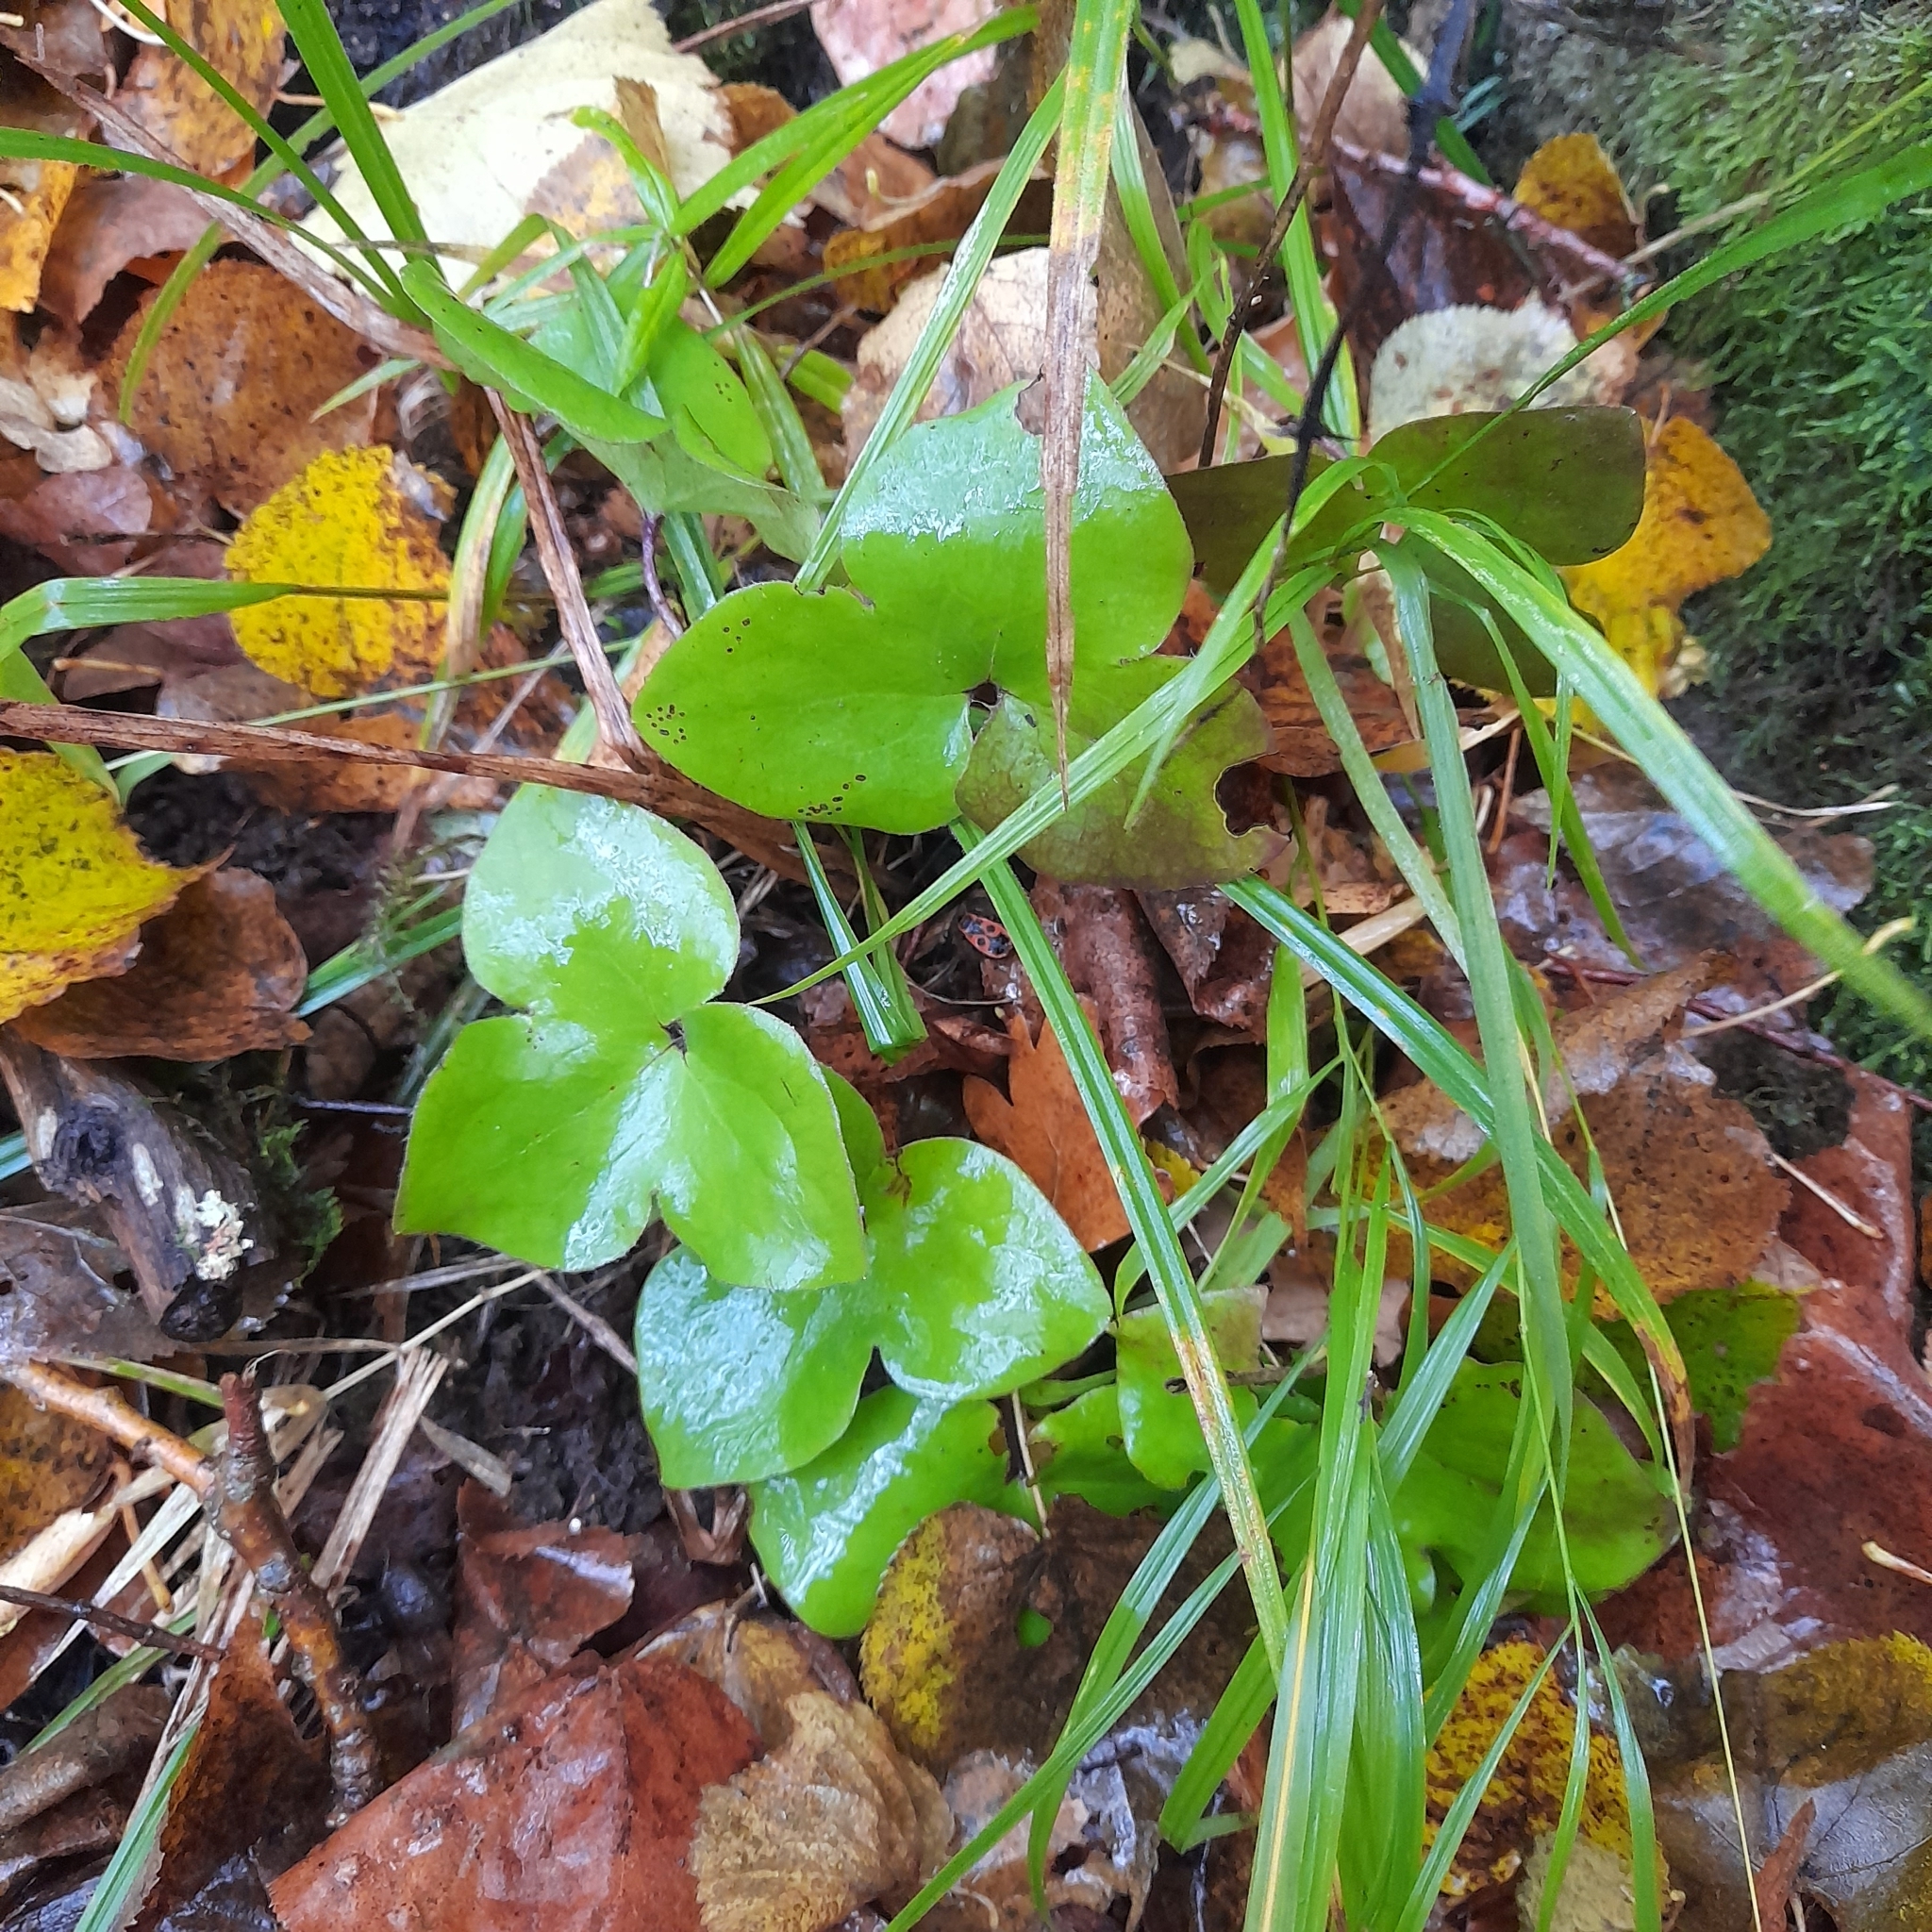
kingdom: Plantae
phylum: Tracheophyta
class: Magnoliopsida
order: Ranunculales
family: Ranunculaceae
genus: Hepatica
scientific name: Hepatica nobilis
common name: Liverleaf
